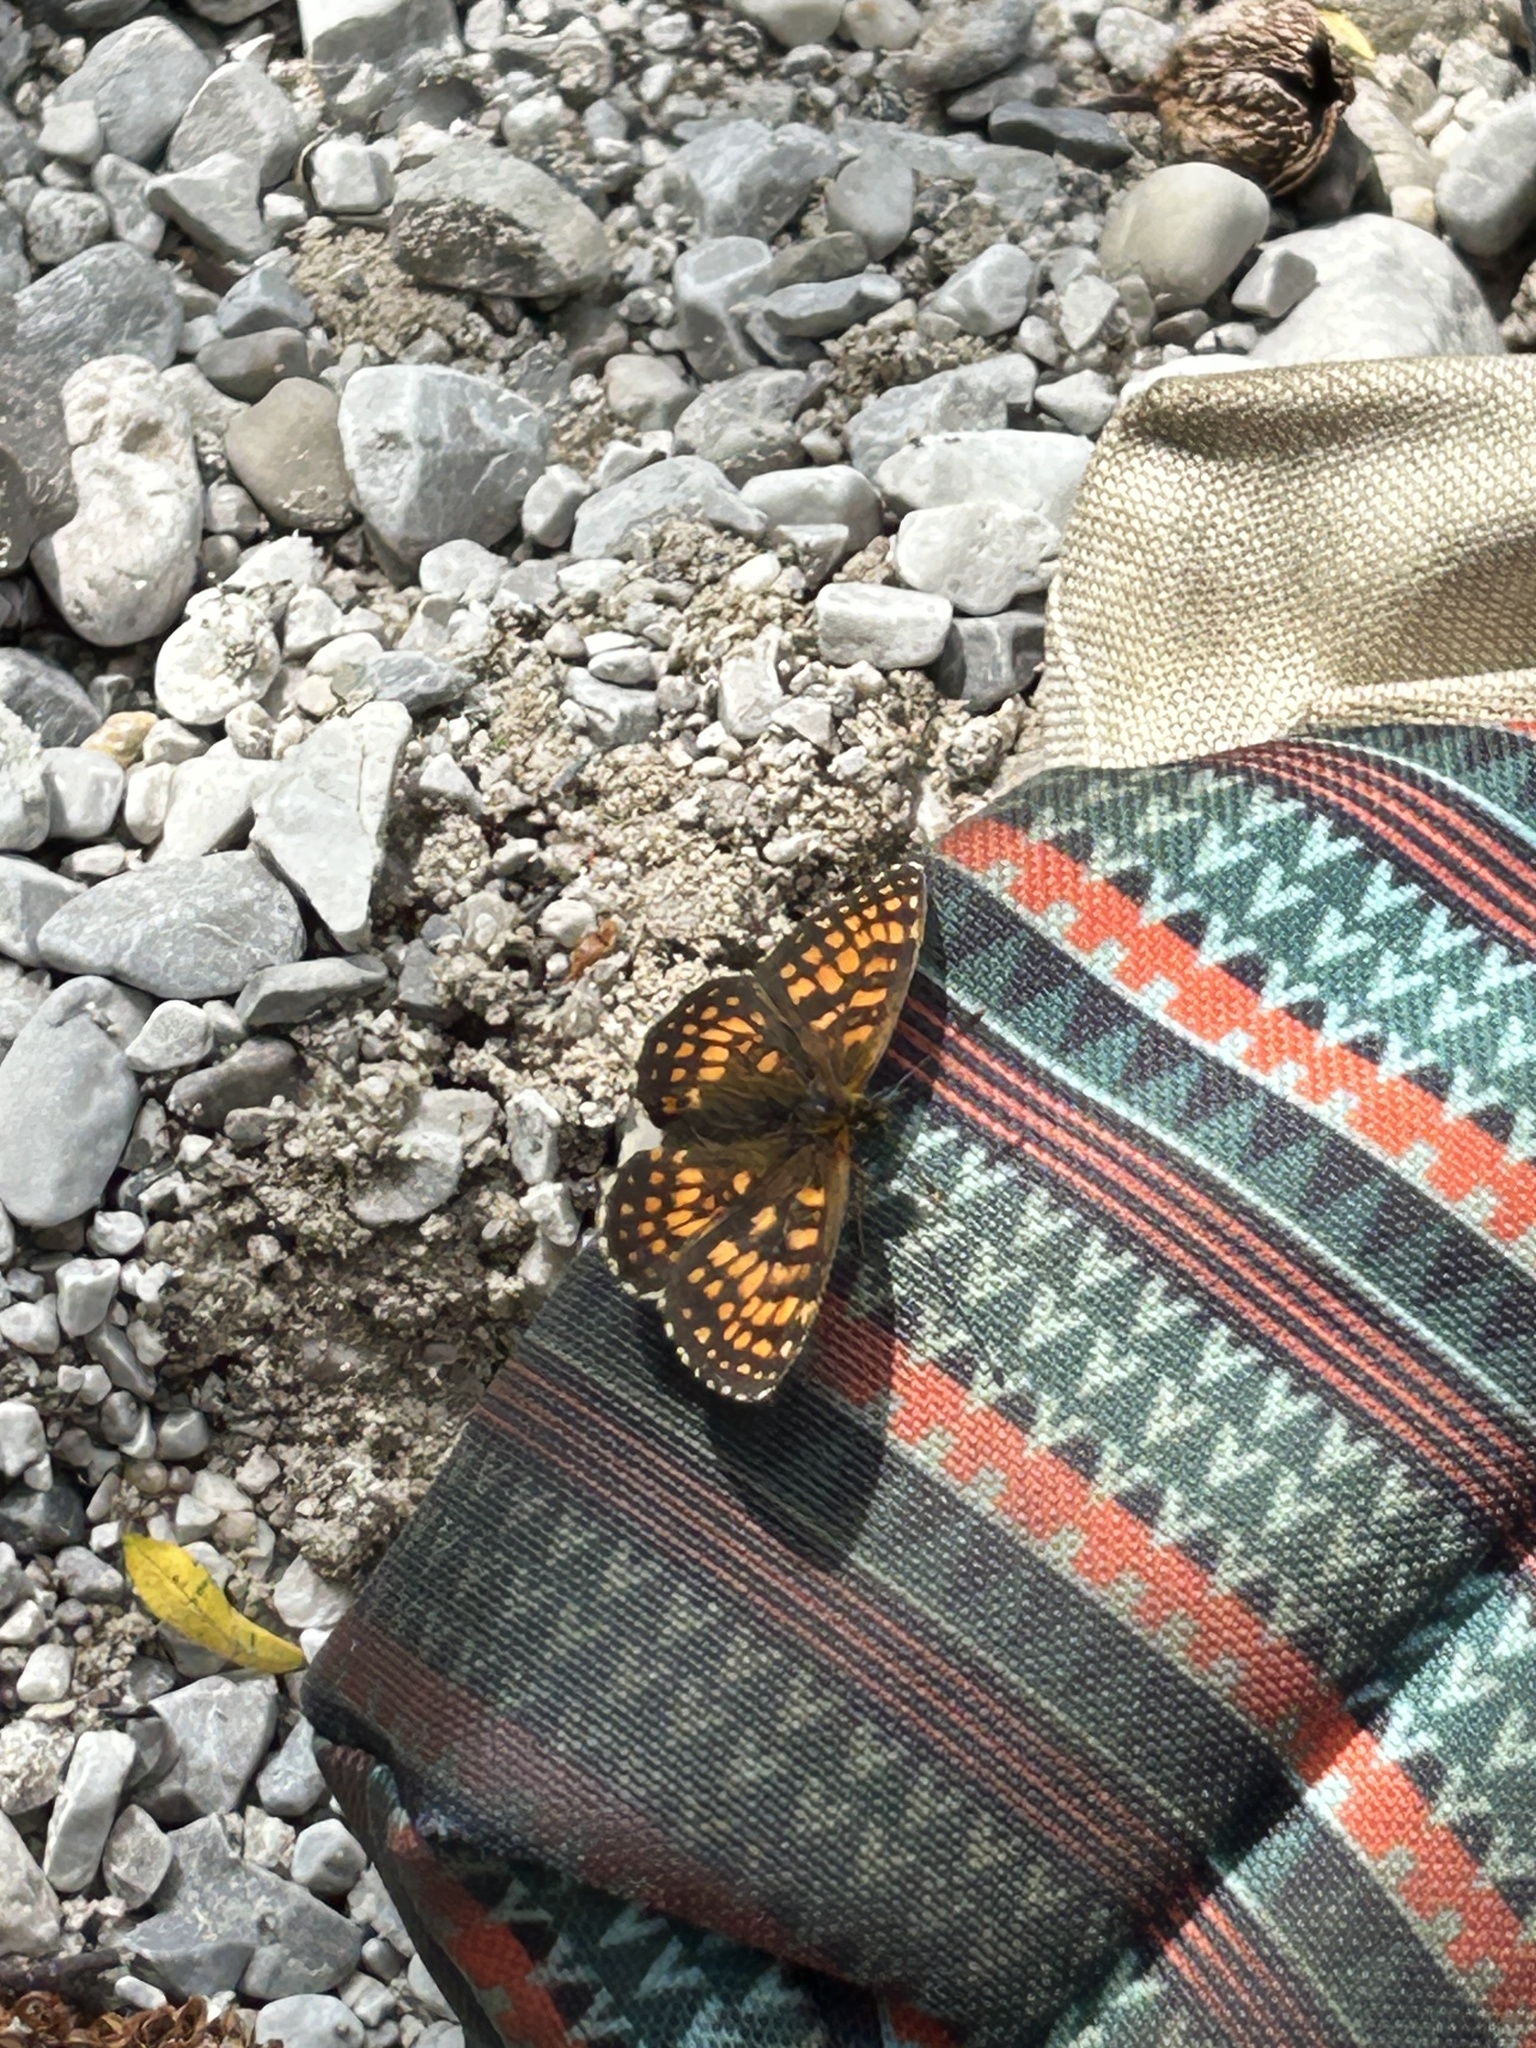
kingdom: Animalia
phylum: Arthropoda
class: Insecta
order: Lepidoptera
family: Nymphalidae
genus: Melitaea
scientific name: Melitaea athalia
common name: Heath fritillary
